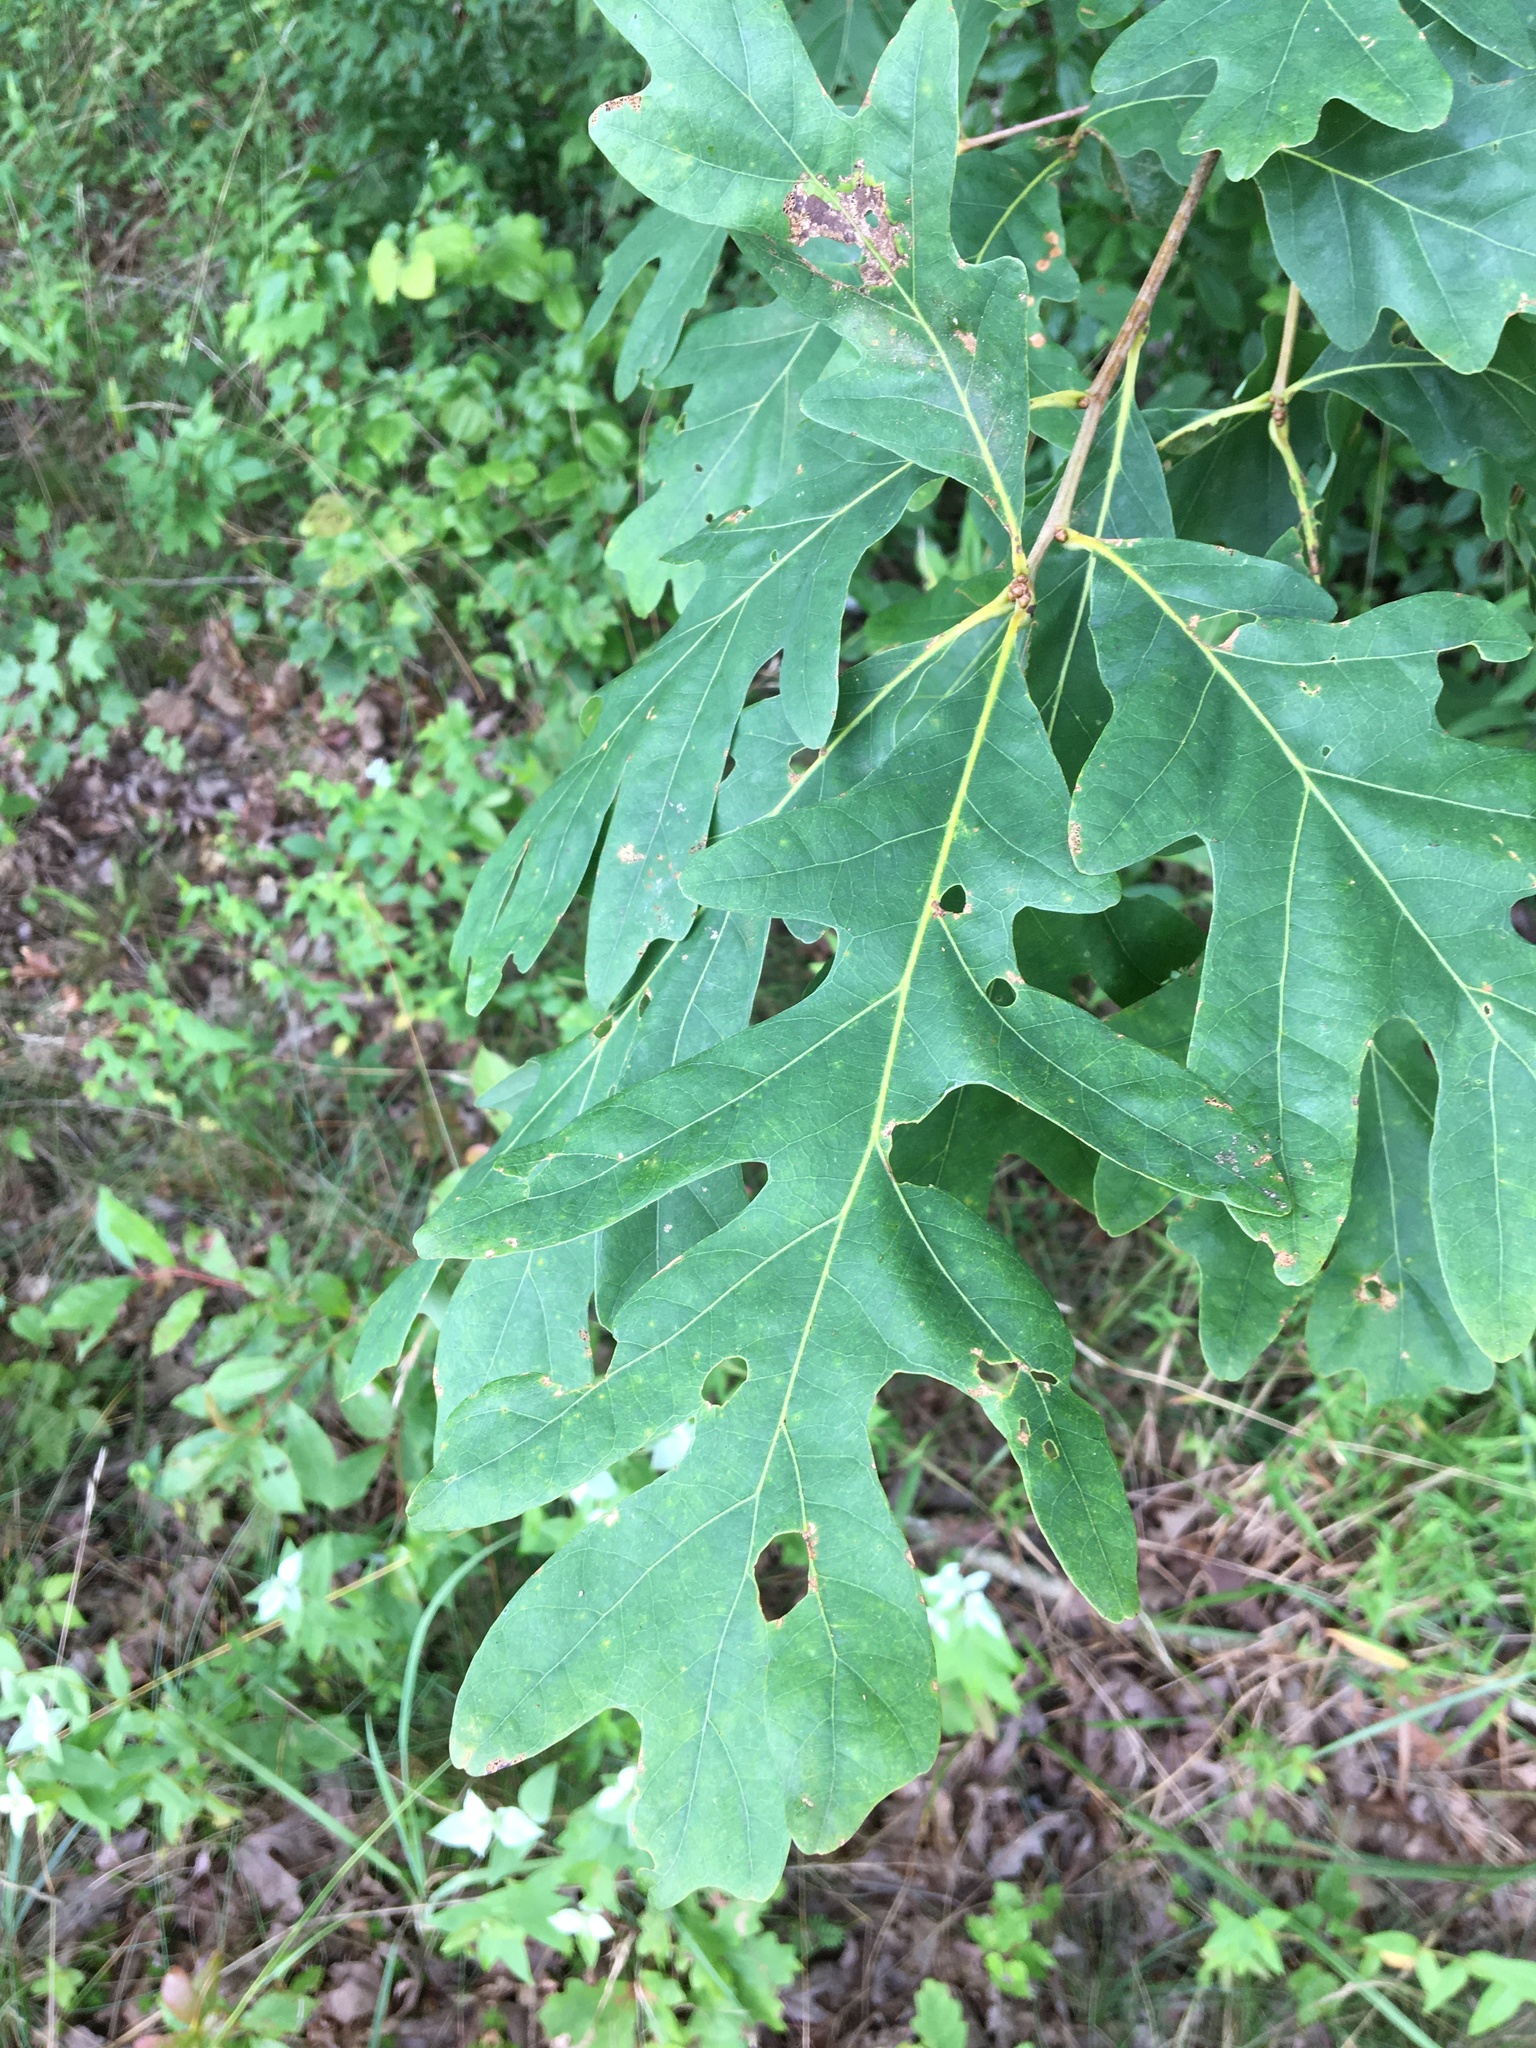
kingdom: Plantae
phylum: Tracheophyta
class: Magnoliopsida
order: Fagales
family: Fagaceae
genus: Quercus
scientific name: Quercus alba
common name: White oak
